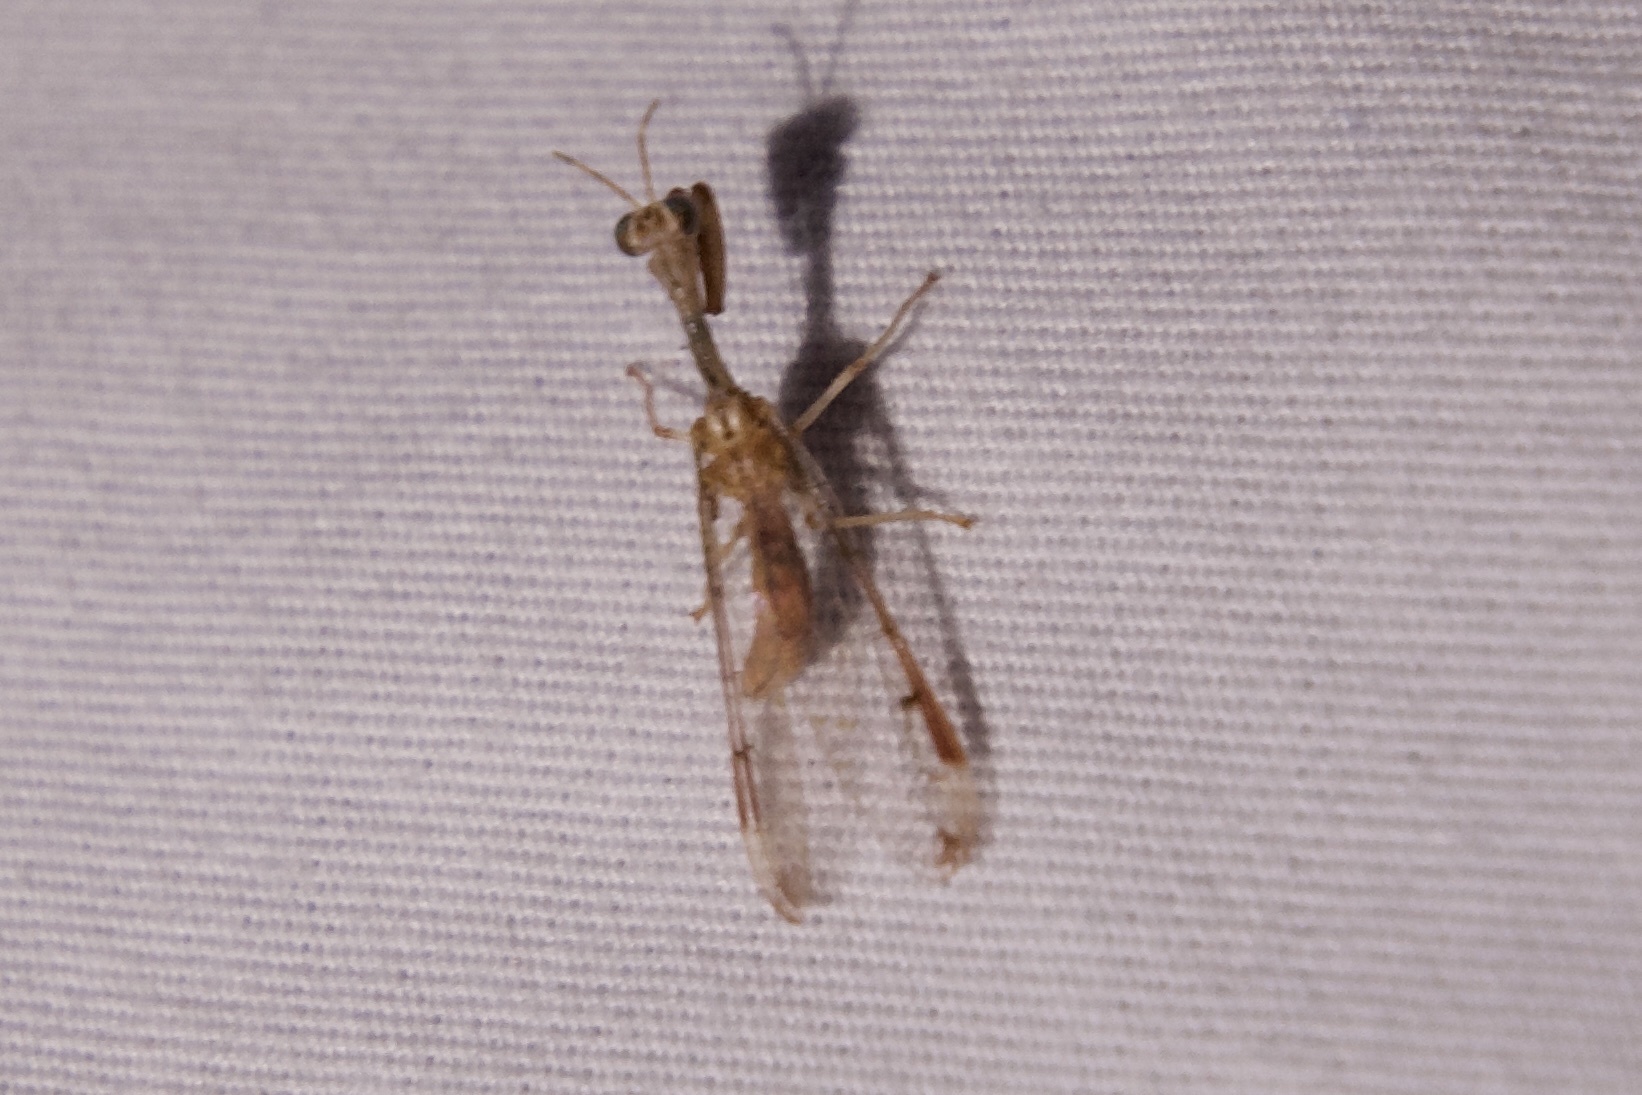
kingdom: Animalia
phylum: Arthropoda
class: Insecta
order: Neuroptera
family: Mantispidae
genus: Dicromantispa
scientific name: Dicromantispa interrupta
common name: Four-spotted mantidfly
